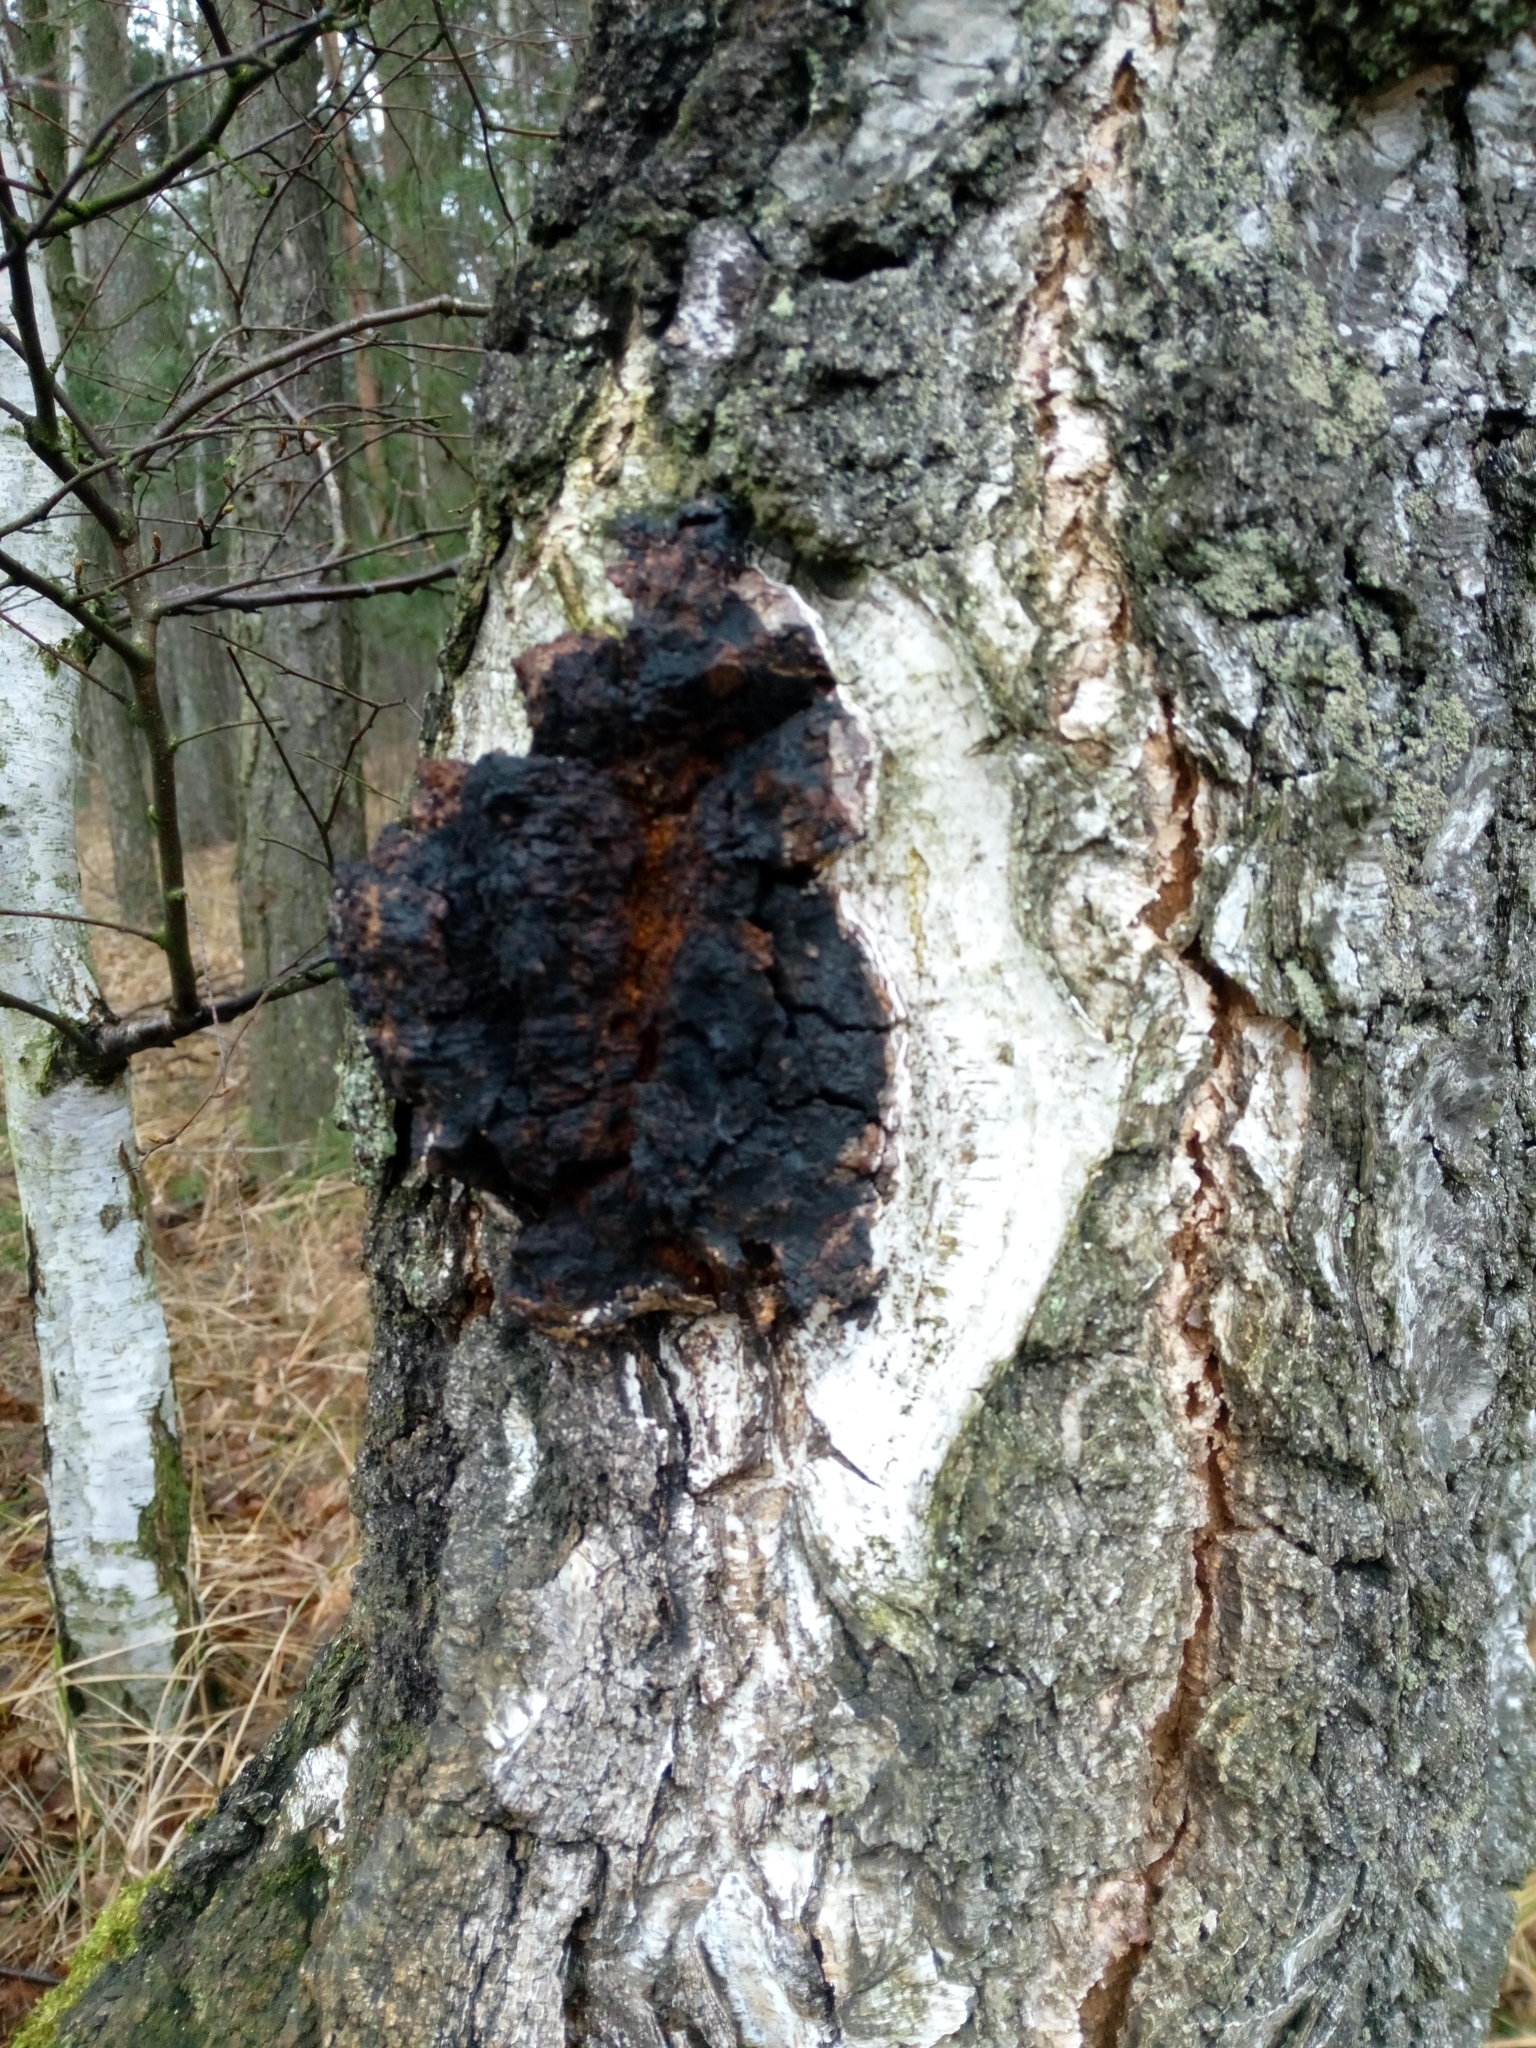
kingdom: Fungi
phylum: Basidiomycota
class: Agaricomycetes
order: Hymenochaetales
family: Hymenochaetaceae
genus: Inonotus
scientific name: Inonotus obliquus
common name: Chaga
